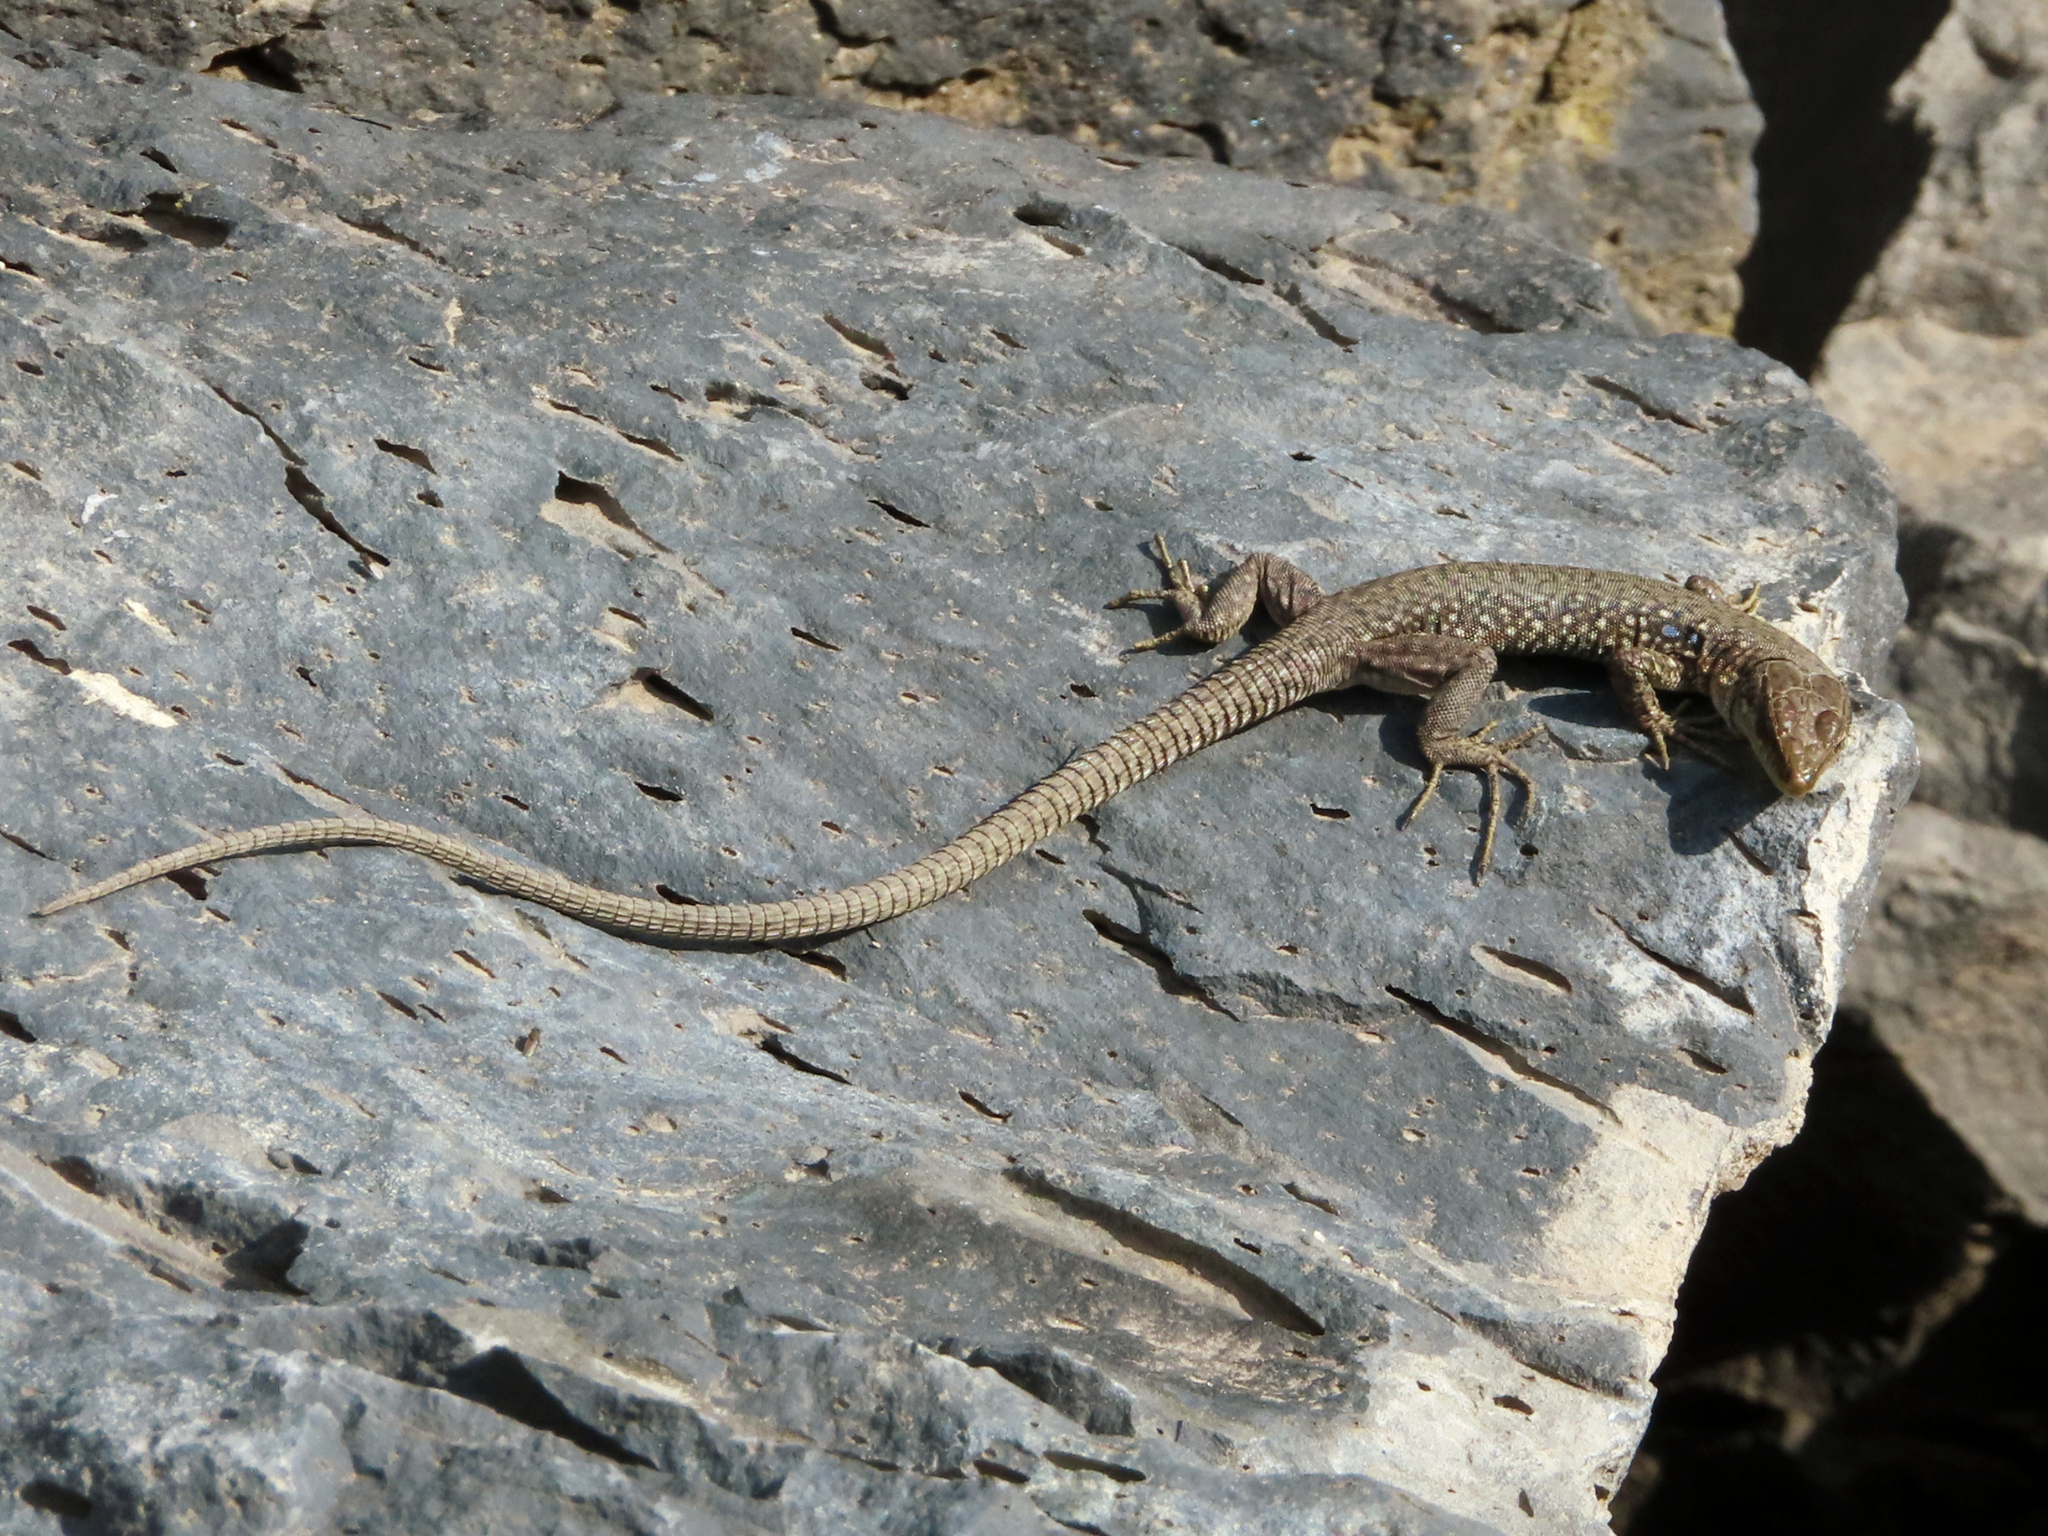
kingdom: Animalia
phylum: Chordata
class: Squamata
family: Lacertidae
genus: Darevskia
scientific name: Darevskia
